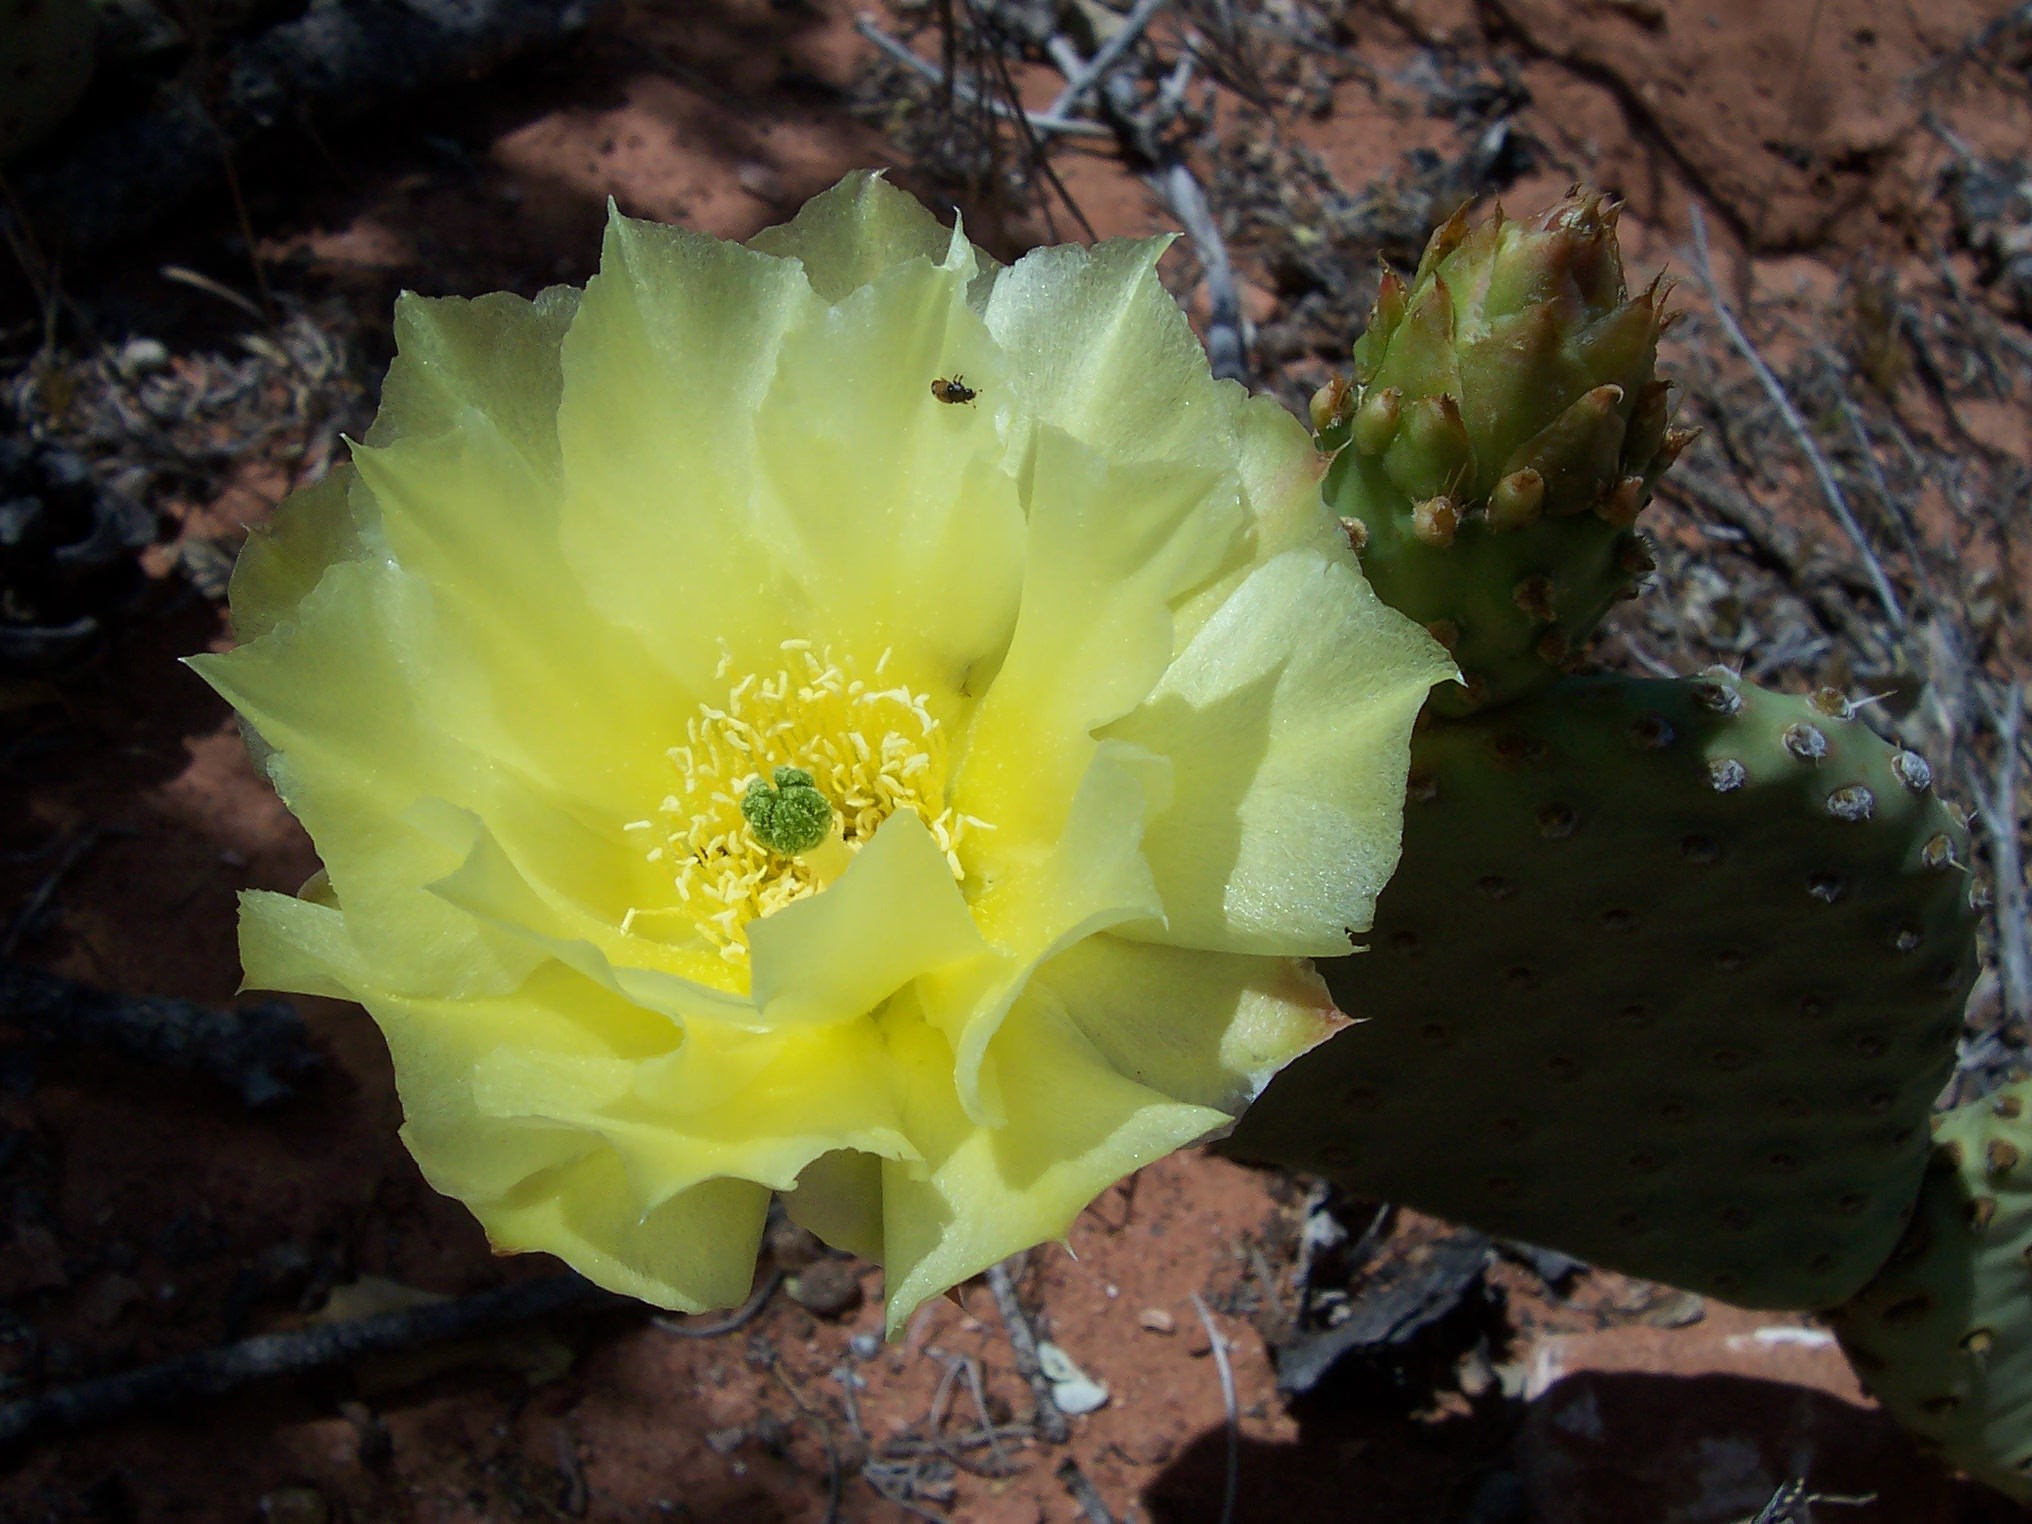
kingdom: Plantae
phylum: Tracheophyta
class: Magnoliopsida
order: Caryophyllales
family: Cactaceae
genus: Opuntia
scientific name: Opuntia aurea
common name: Golden prickly-pear
